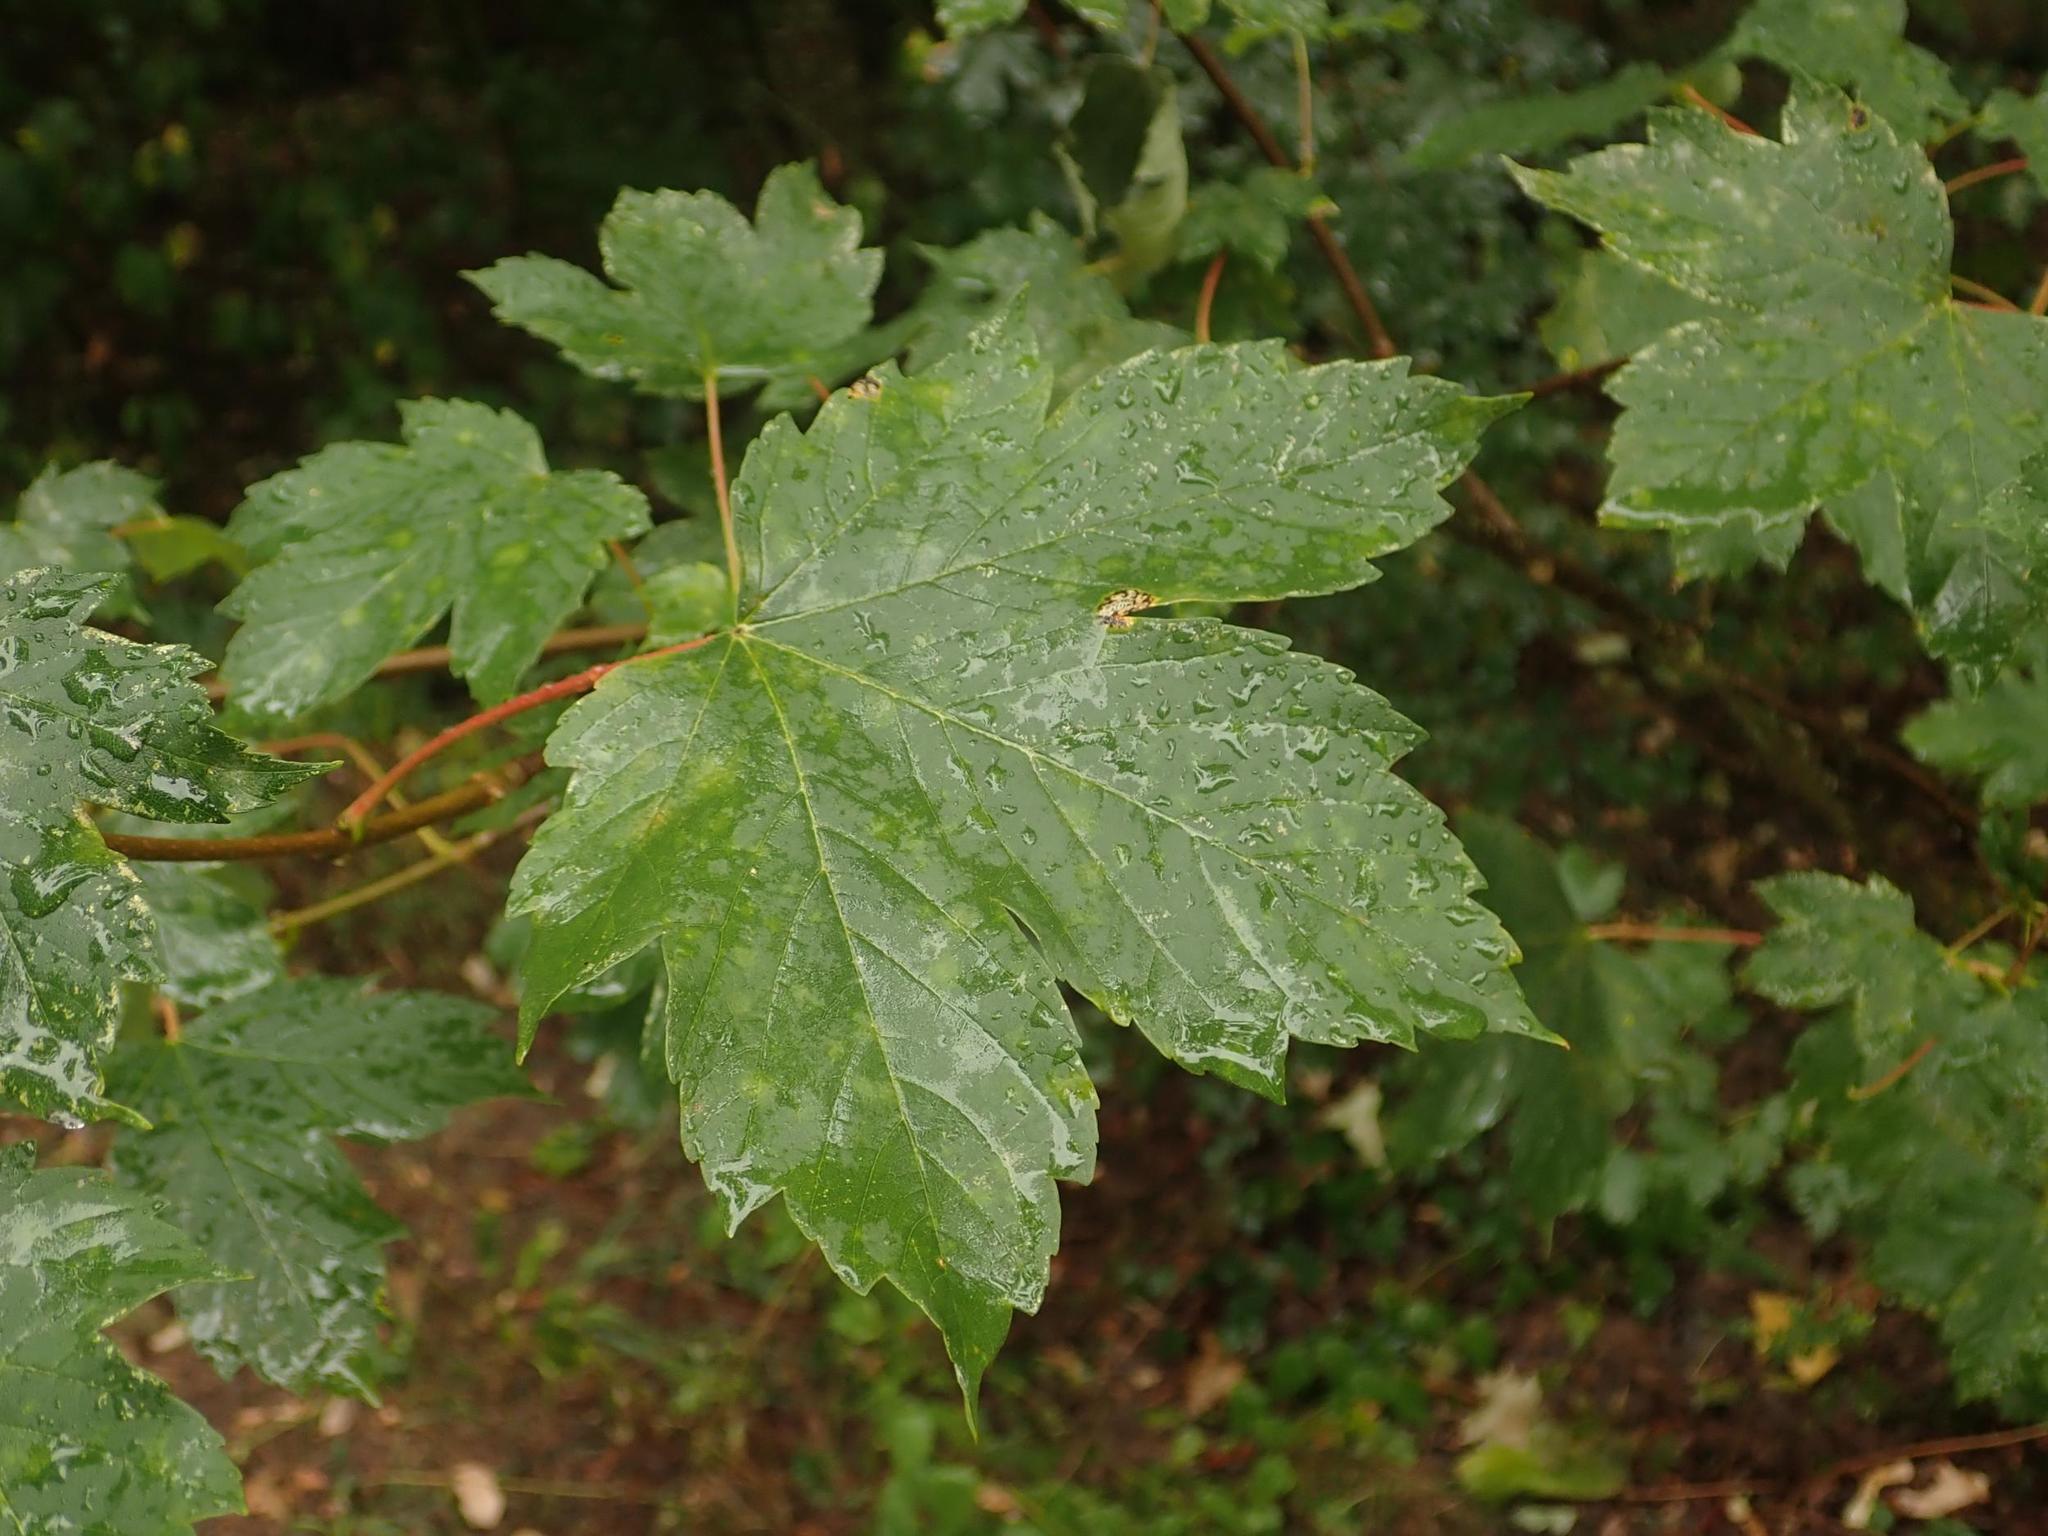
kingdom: Plantae
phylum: Tracheophyta
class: Magnoliopsida
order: Sapindales
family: Sapindaceae
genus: Acer
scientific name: Acer pseudoplatanus
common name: Sycamore
